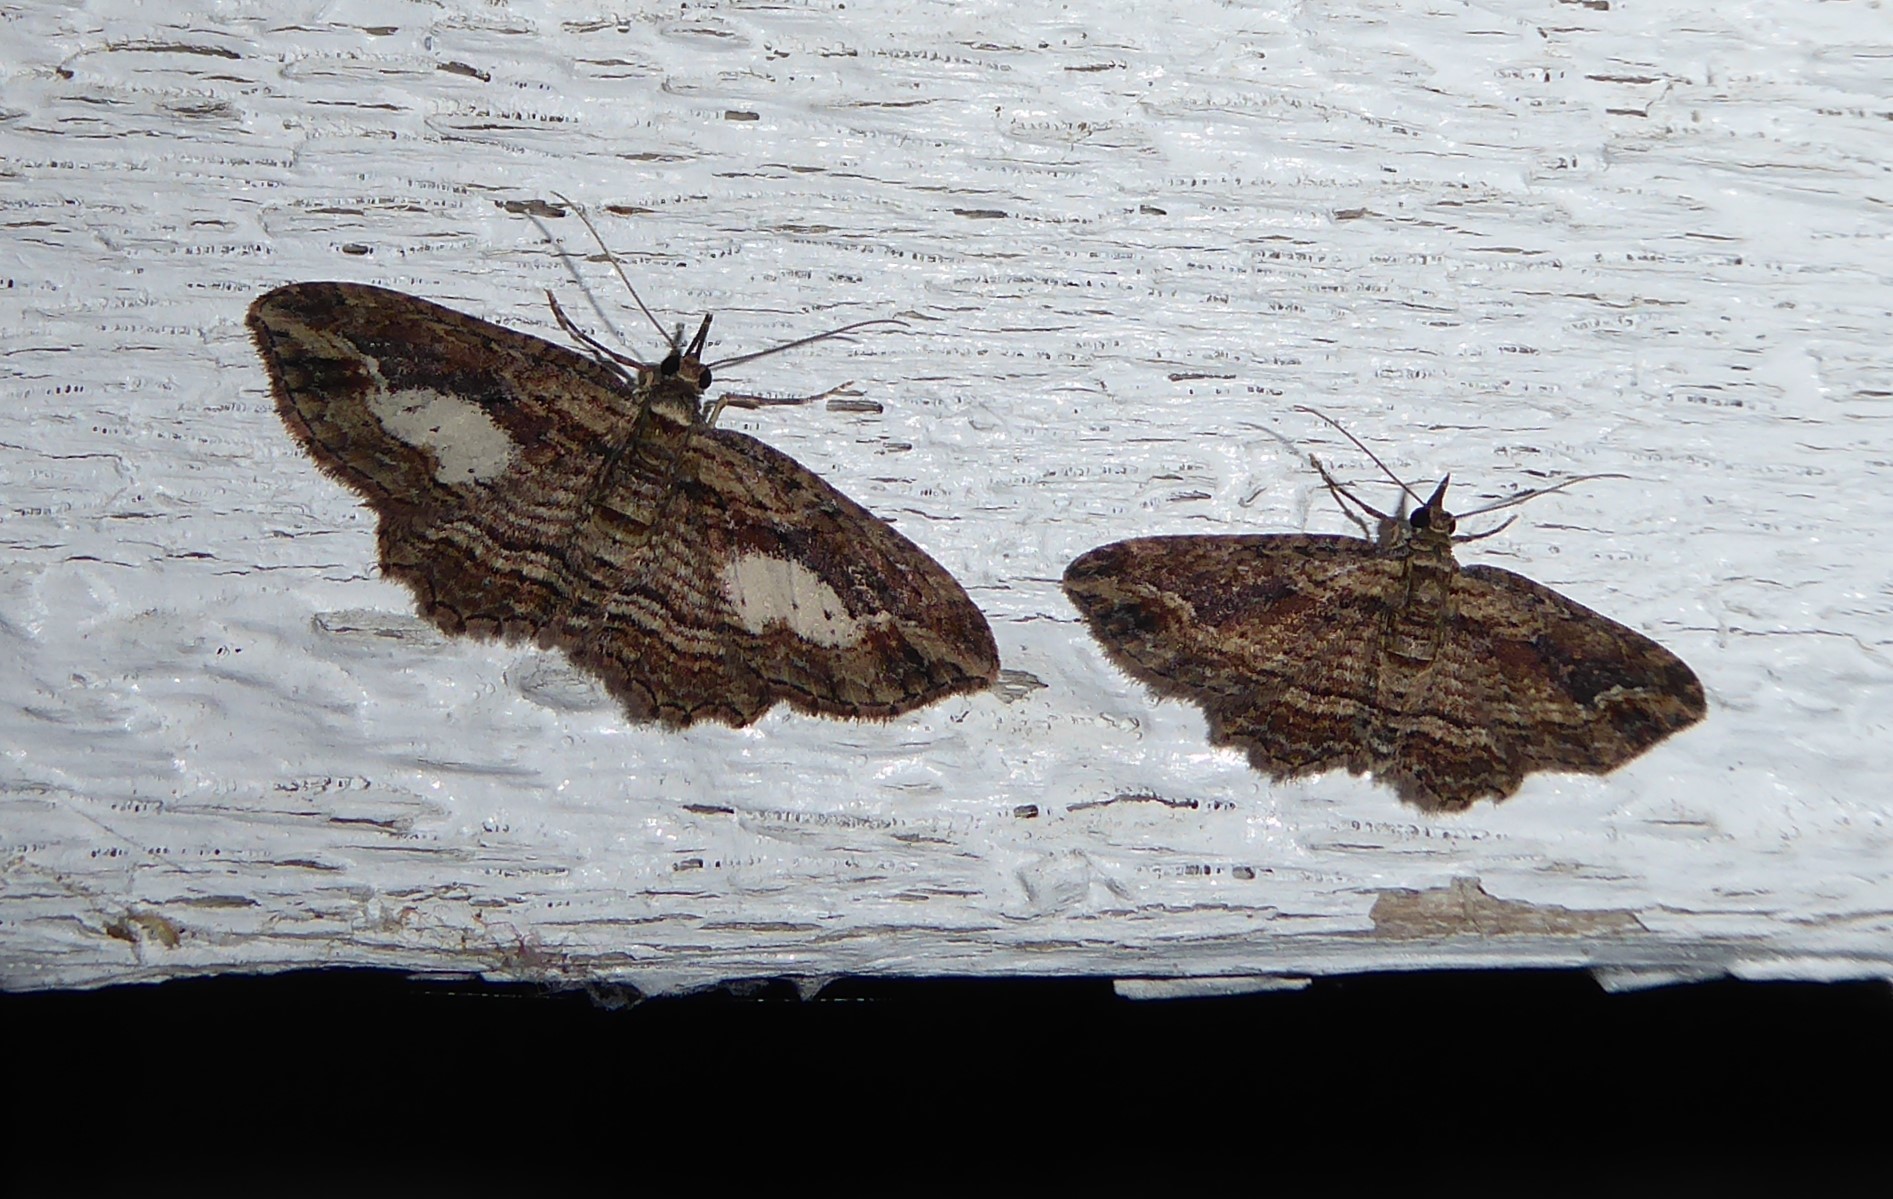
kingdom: Animalia
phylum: Arthropoda
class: Insecta
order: Lepidoptera
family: Geometridae
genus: Chloroclystis
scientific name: Chloroclystis filata
